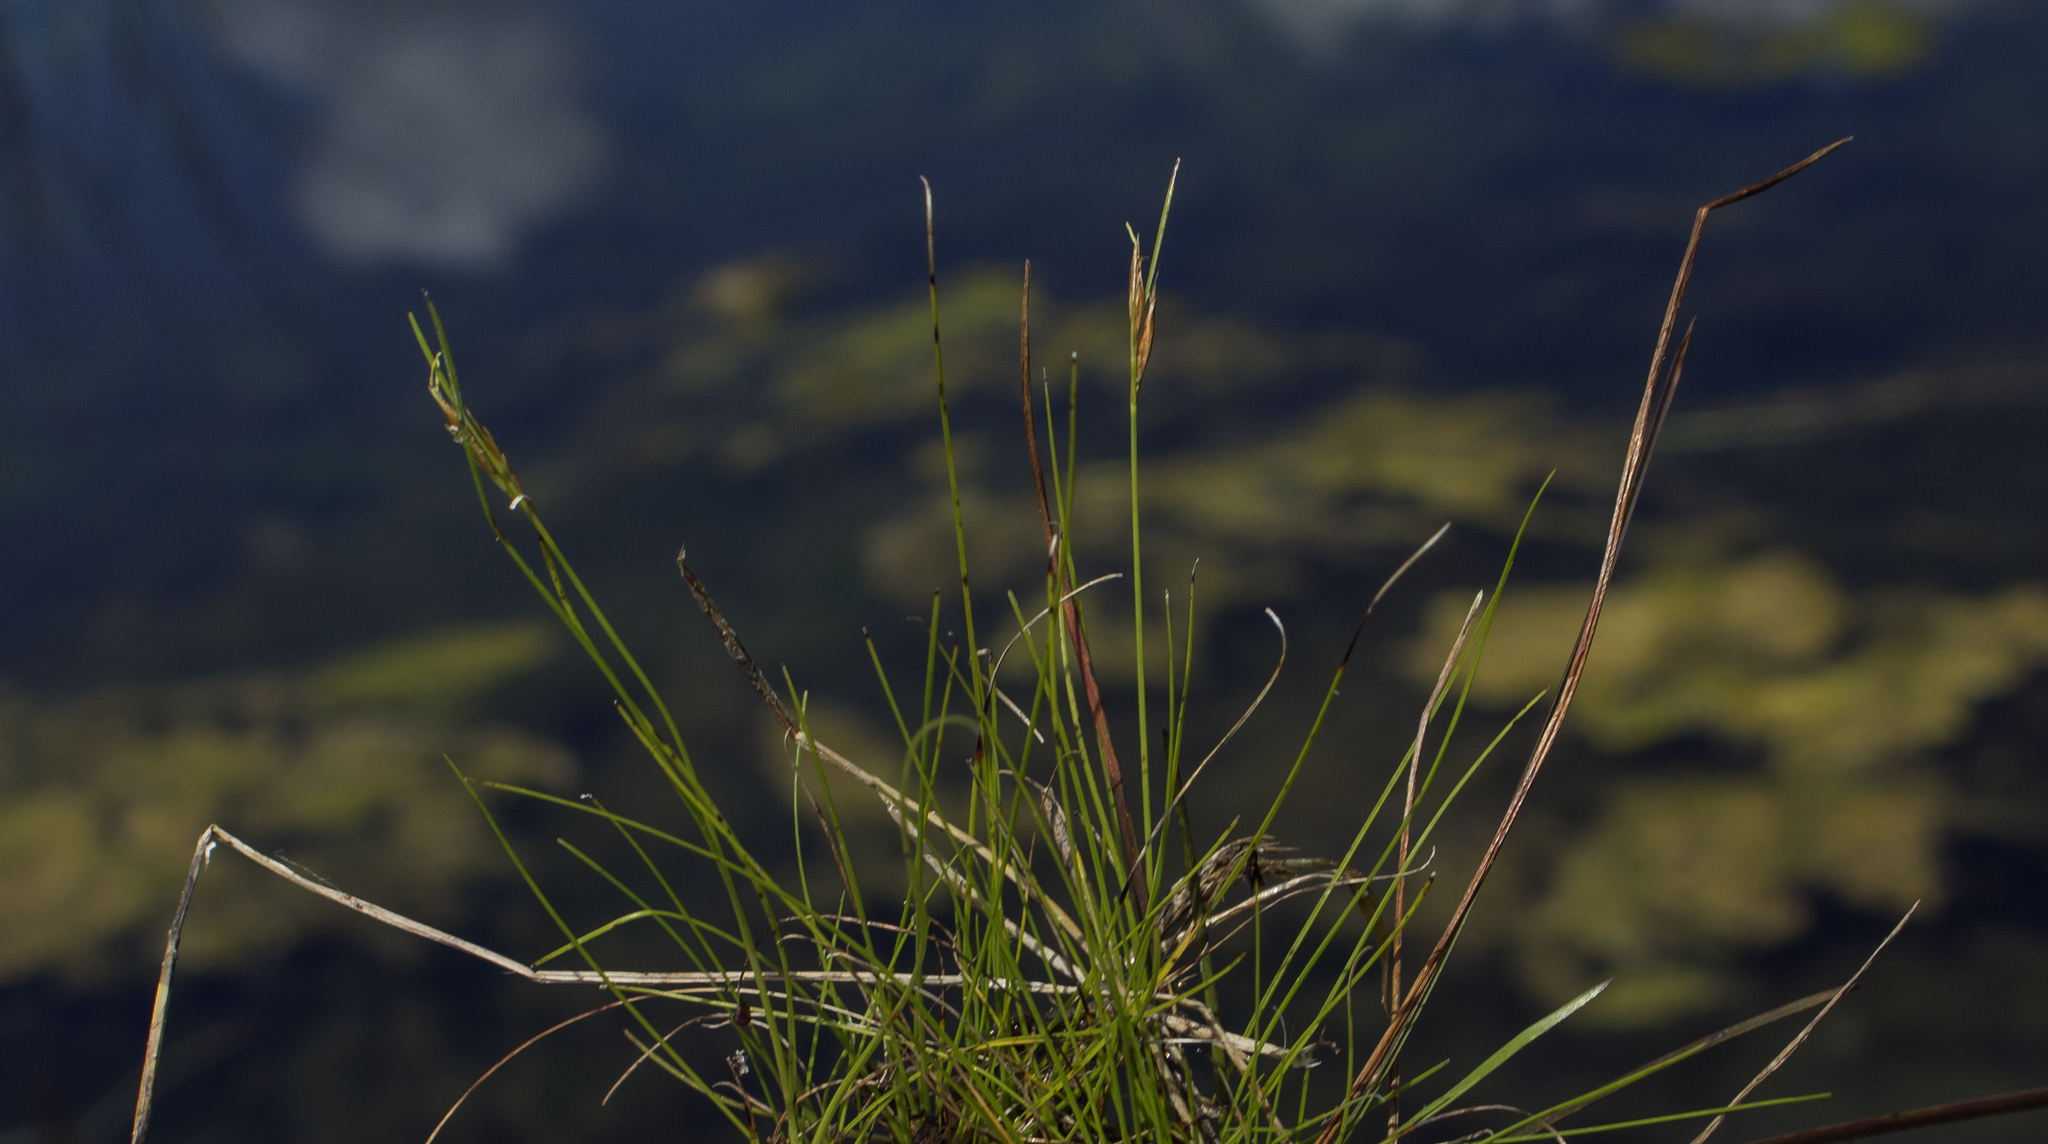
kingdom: Plantae
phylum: Tracheophyta
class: Liliopsida
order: Poales
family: Cyperaceae
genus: Rhynchospora
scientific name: Rhynchospora capillacea
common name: Capillary beakrush
